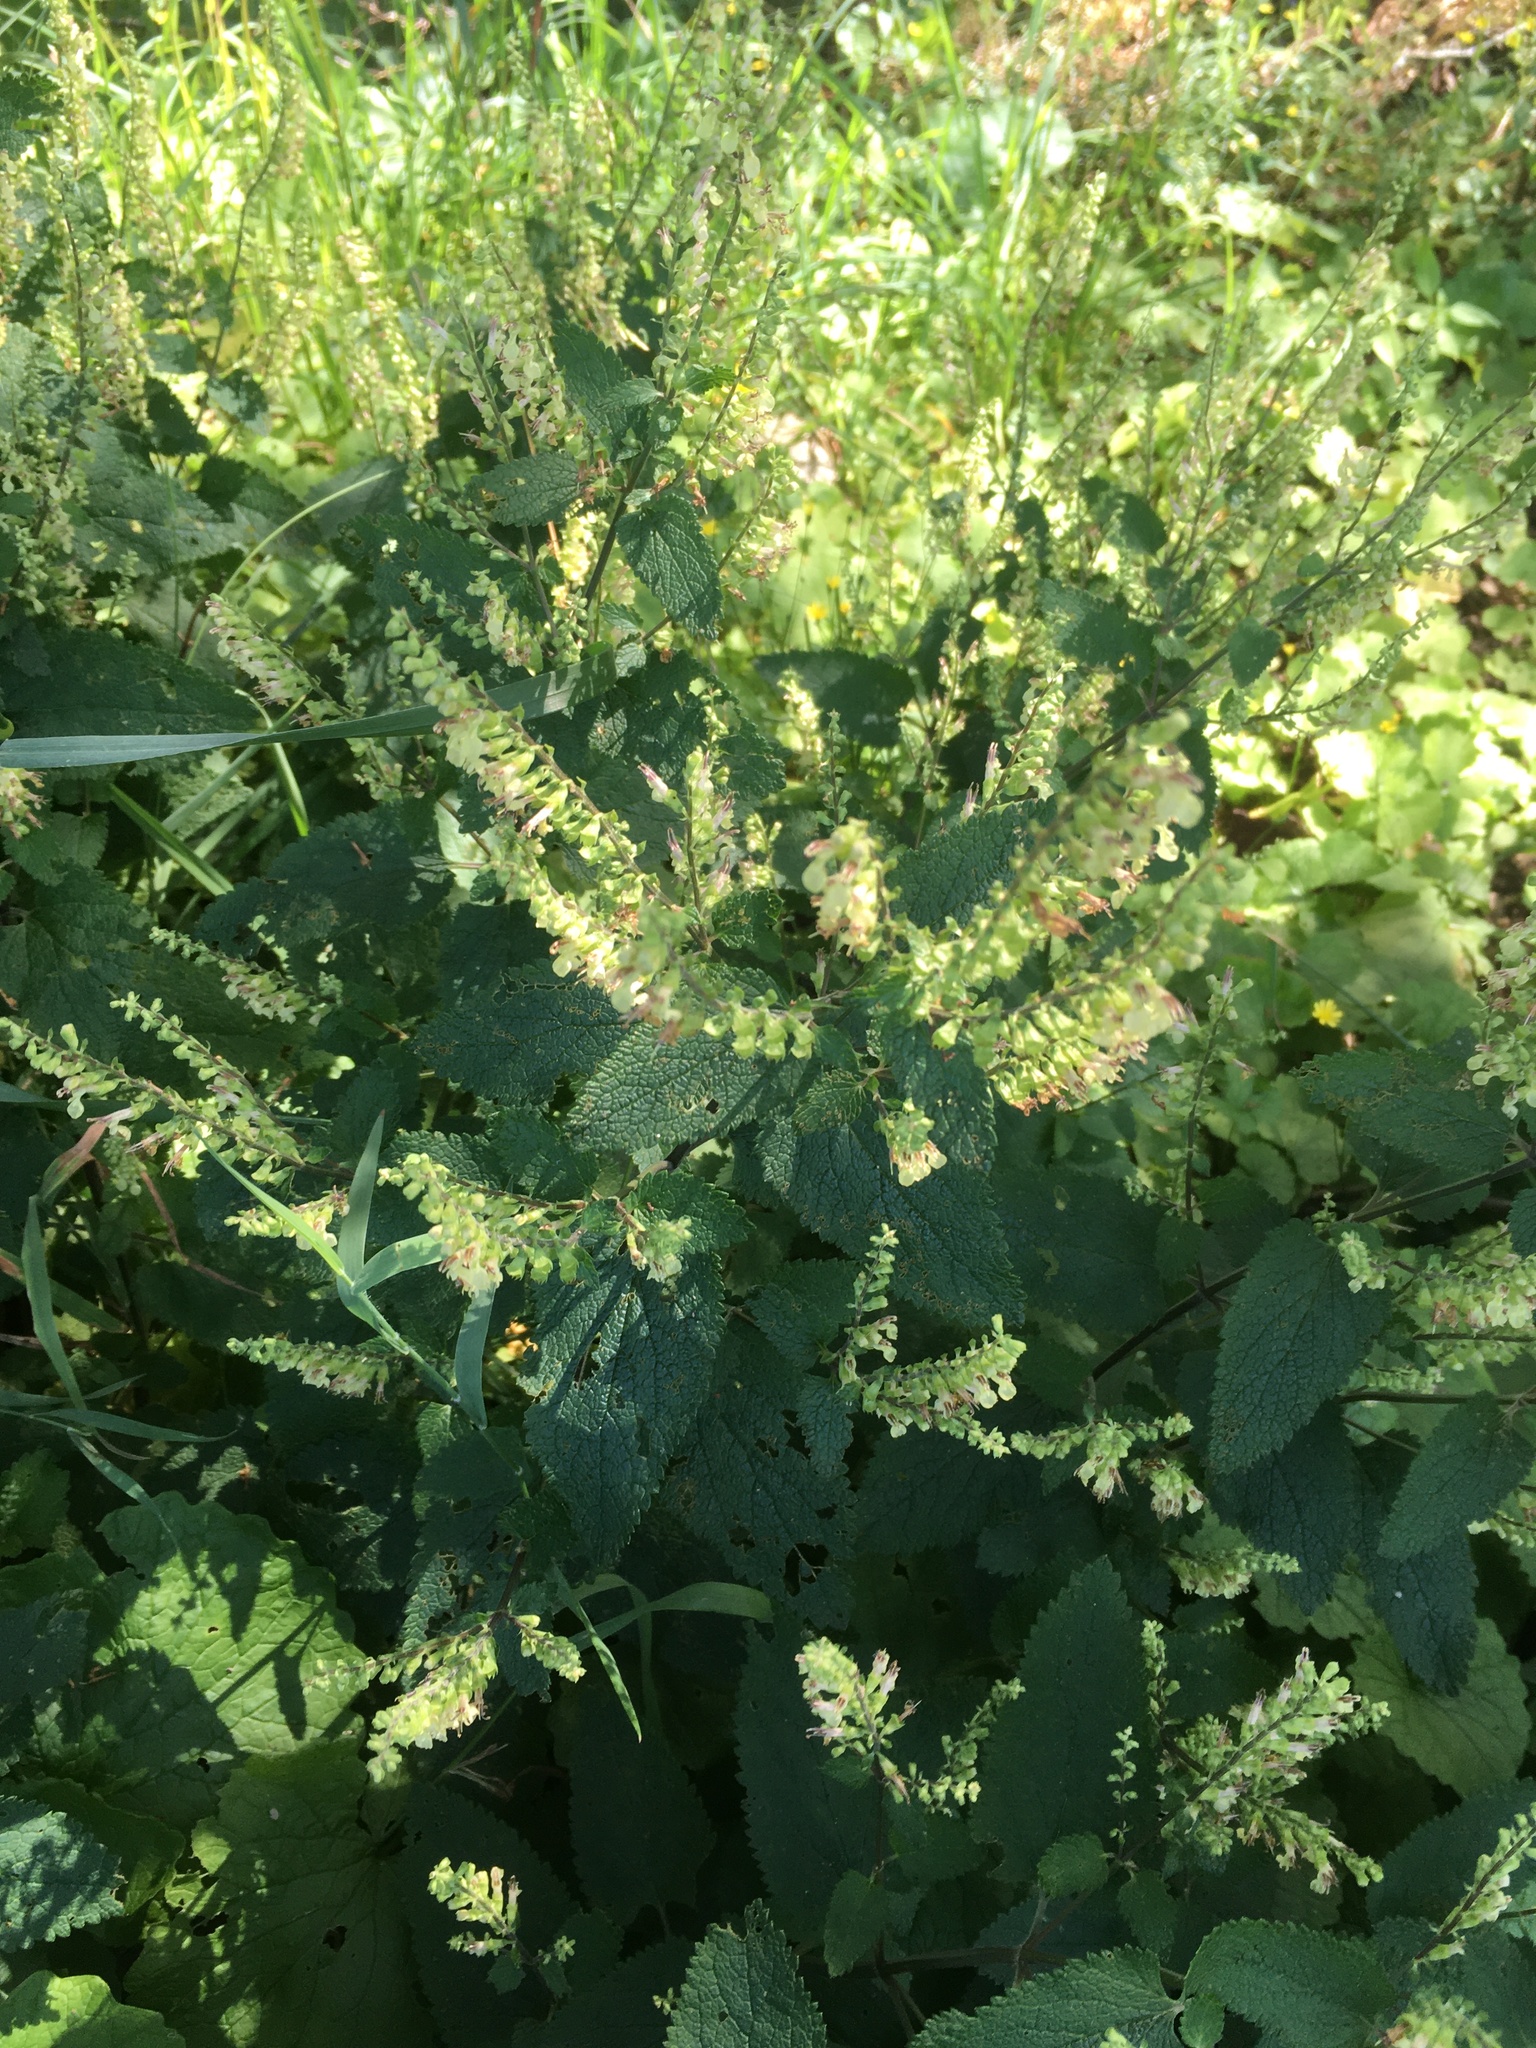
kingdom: Plantae
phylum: Tracheophyta
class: Magnoliopsida
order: Lamiales
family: Lamiaceae
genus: Teucrium
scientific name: Teucrium scorodonia
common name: Woodland germander
